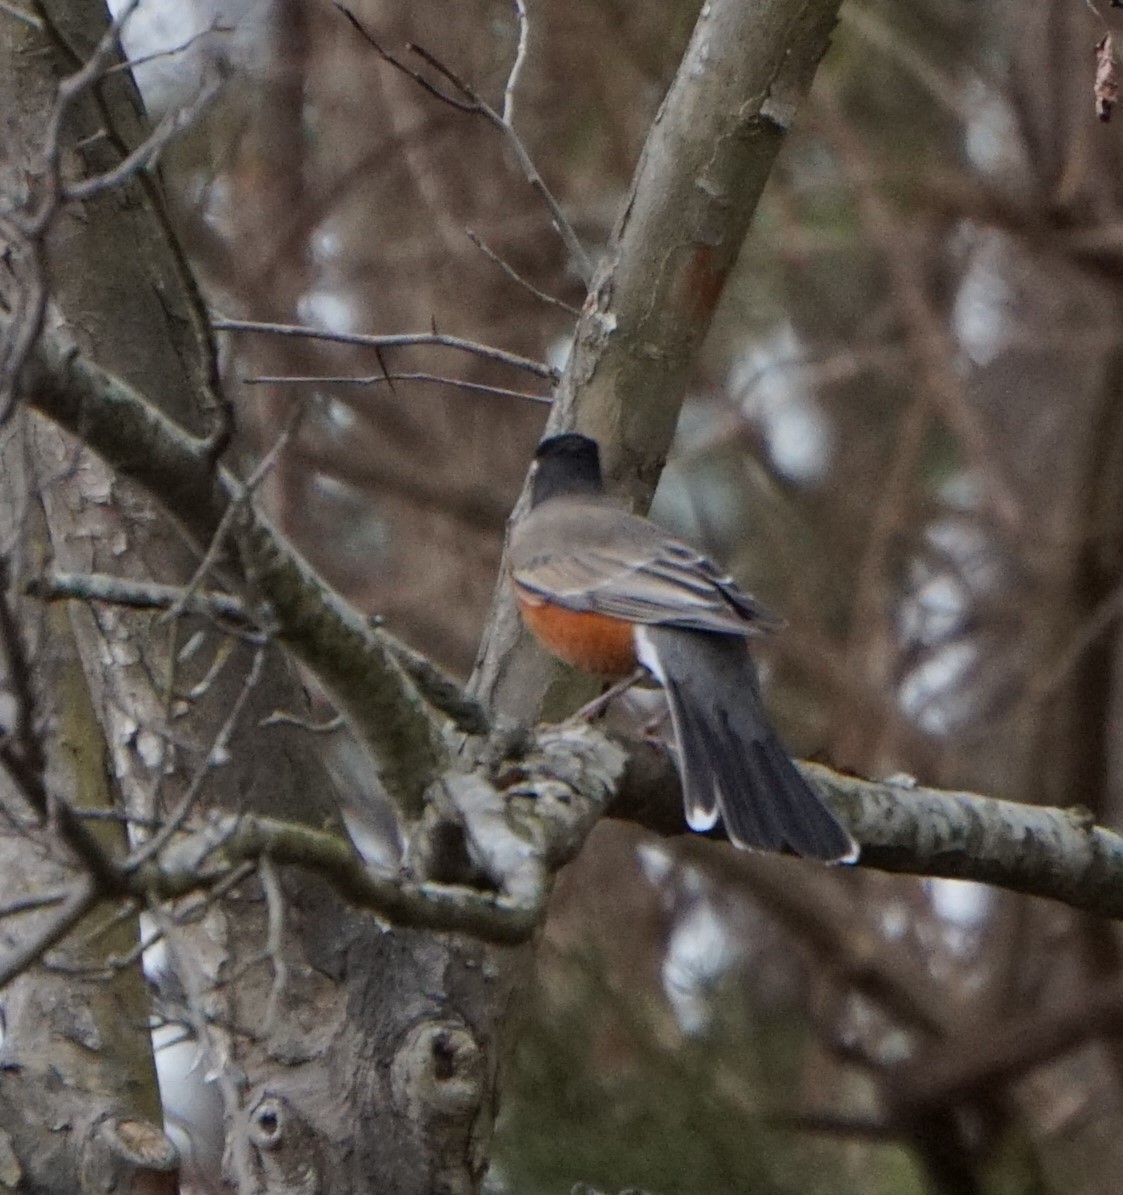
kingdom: Animalia
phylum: Chordata
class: Aves
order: Passeriformes
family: Turdidae
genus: Turdus
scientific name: Turdus migratorius
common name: American robin
